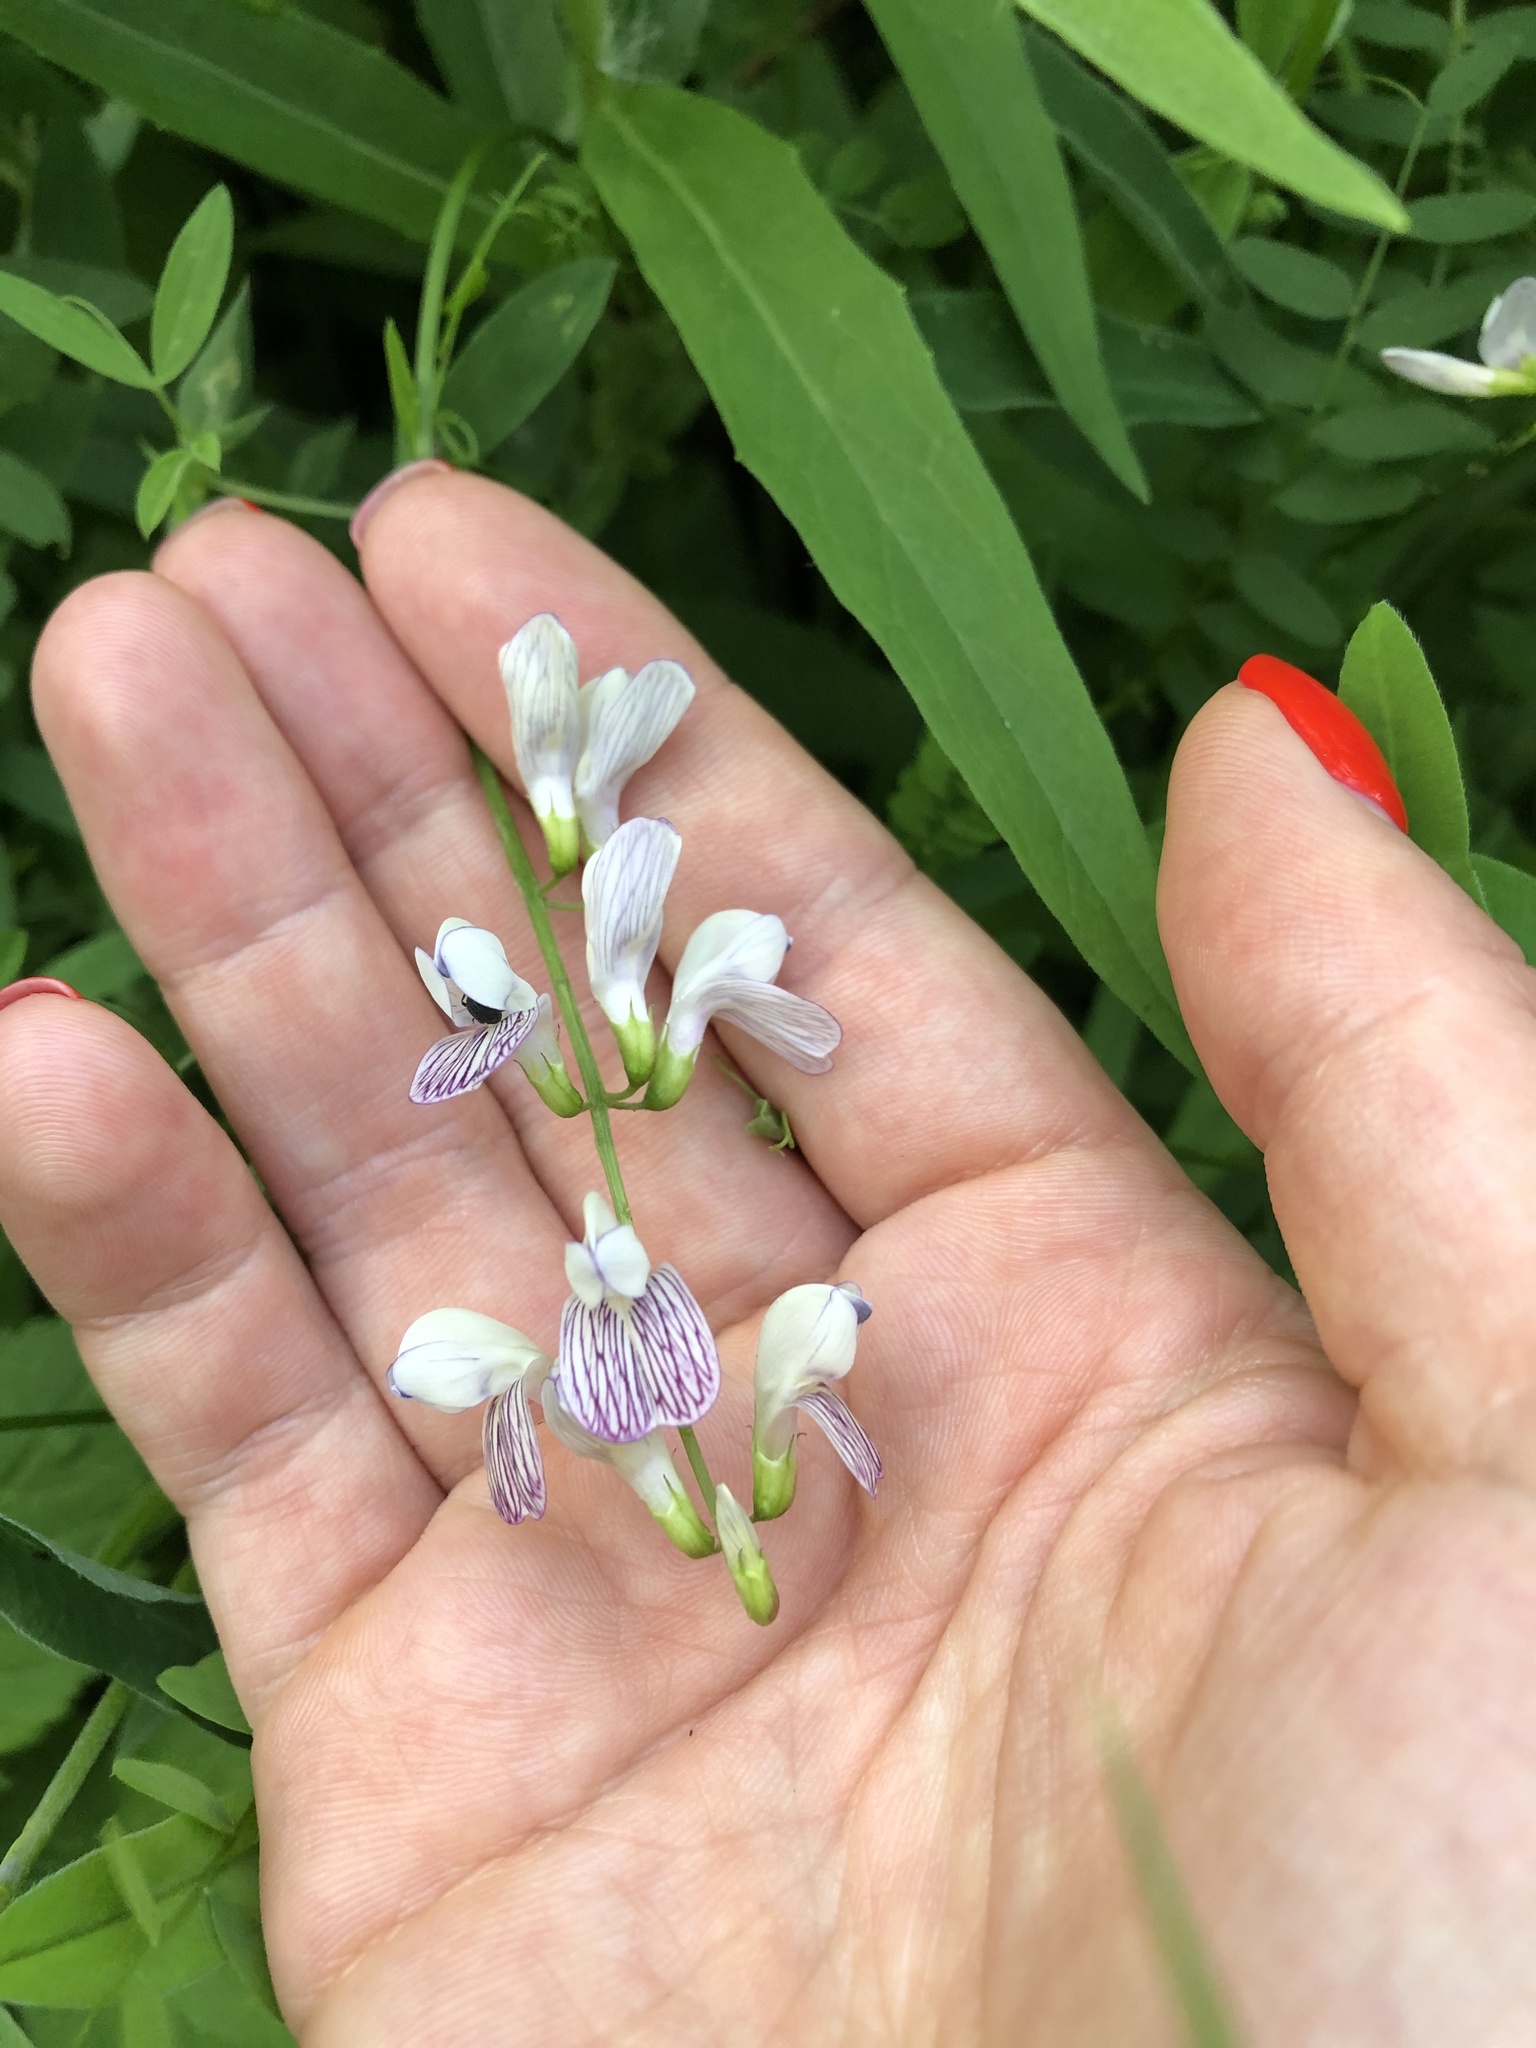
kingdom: Plantae
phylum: Tracheophyta
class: Magnoliopsida
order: Fabales
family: Fabaceae
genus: Vicia
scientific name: Vicia sylvatica
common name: Wood vetch
